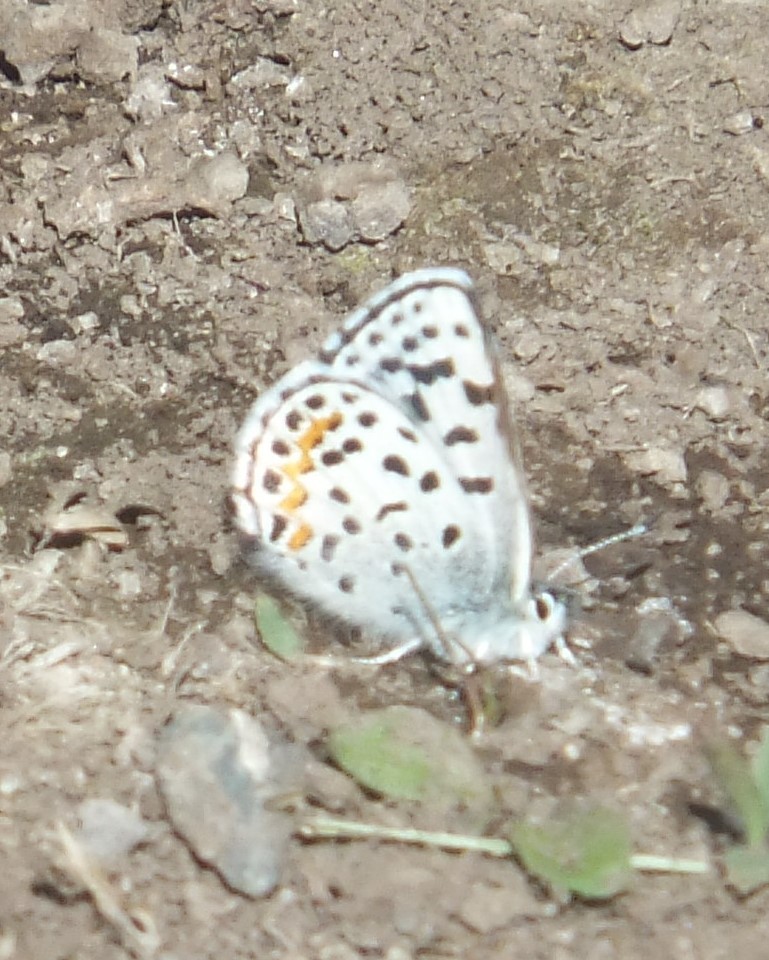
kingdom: Animalia
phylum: Arthropoda
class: Insecta
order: Lepidoptera
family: Lycaenidae
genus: Euphilotes
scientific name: Euphilotes
